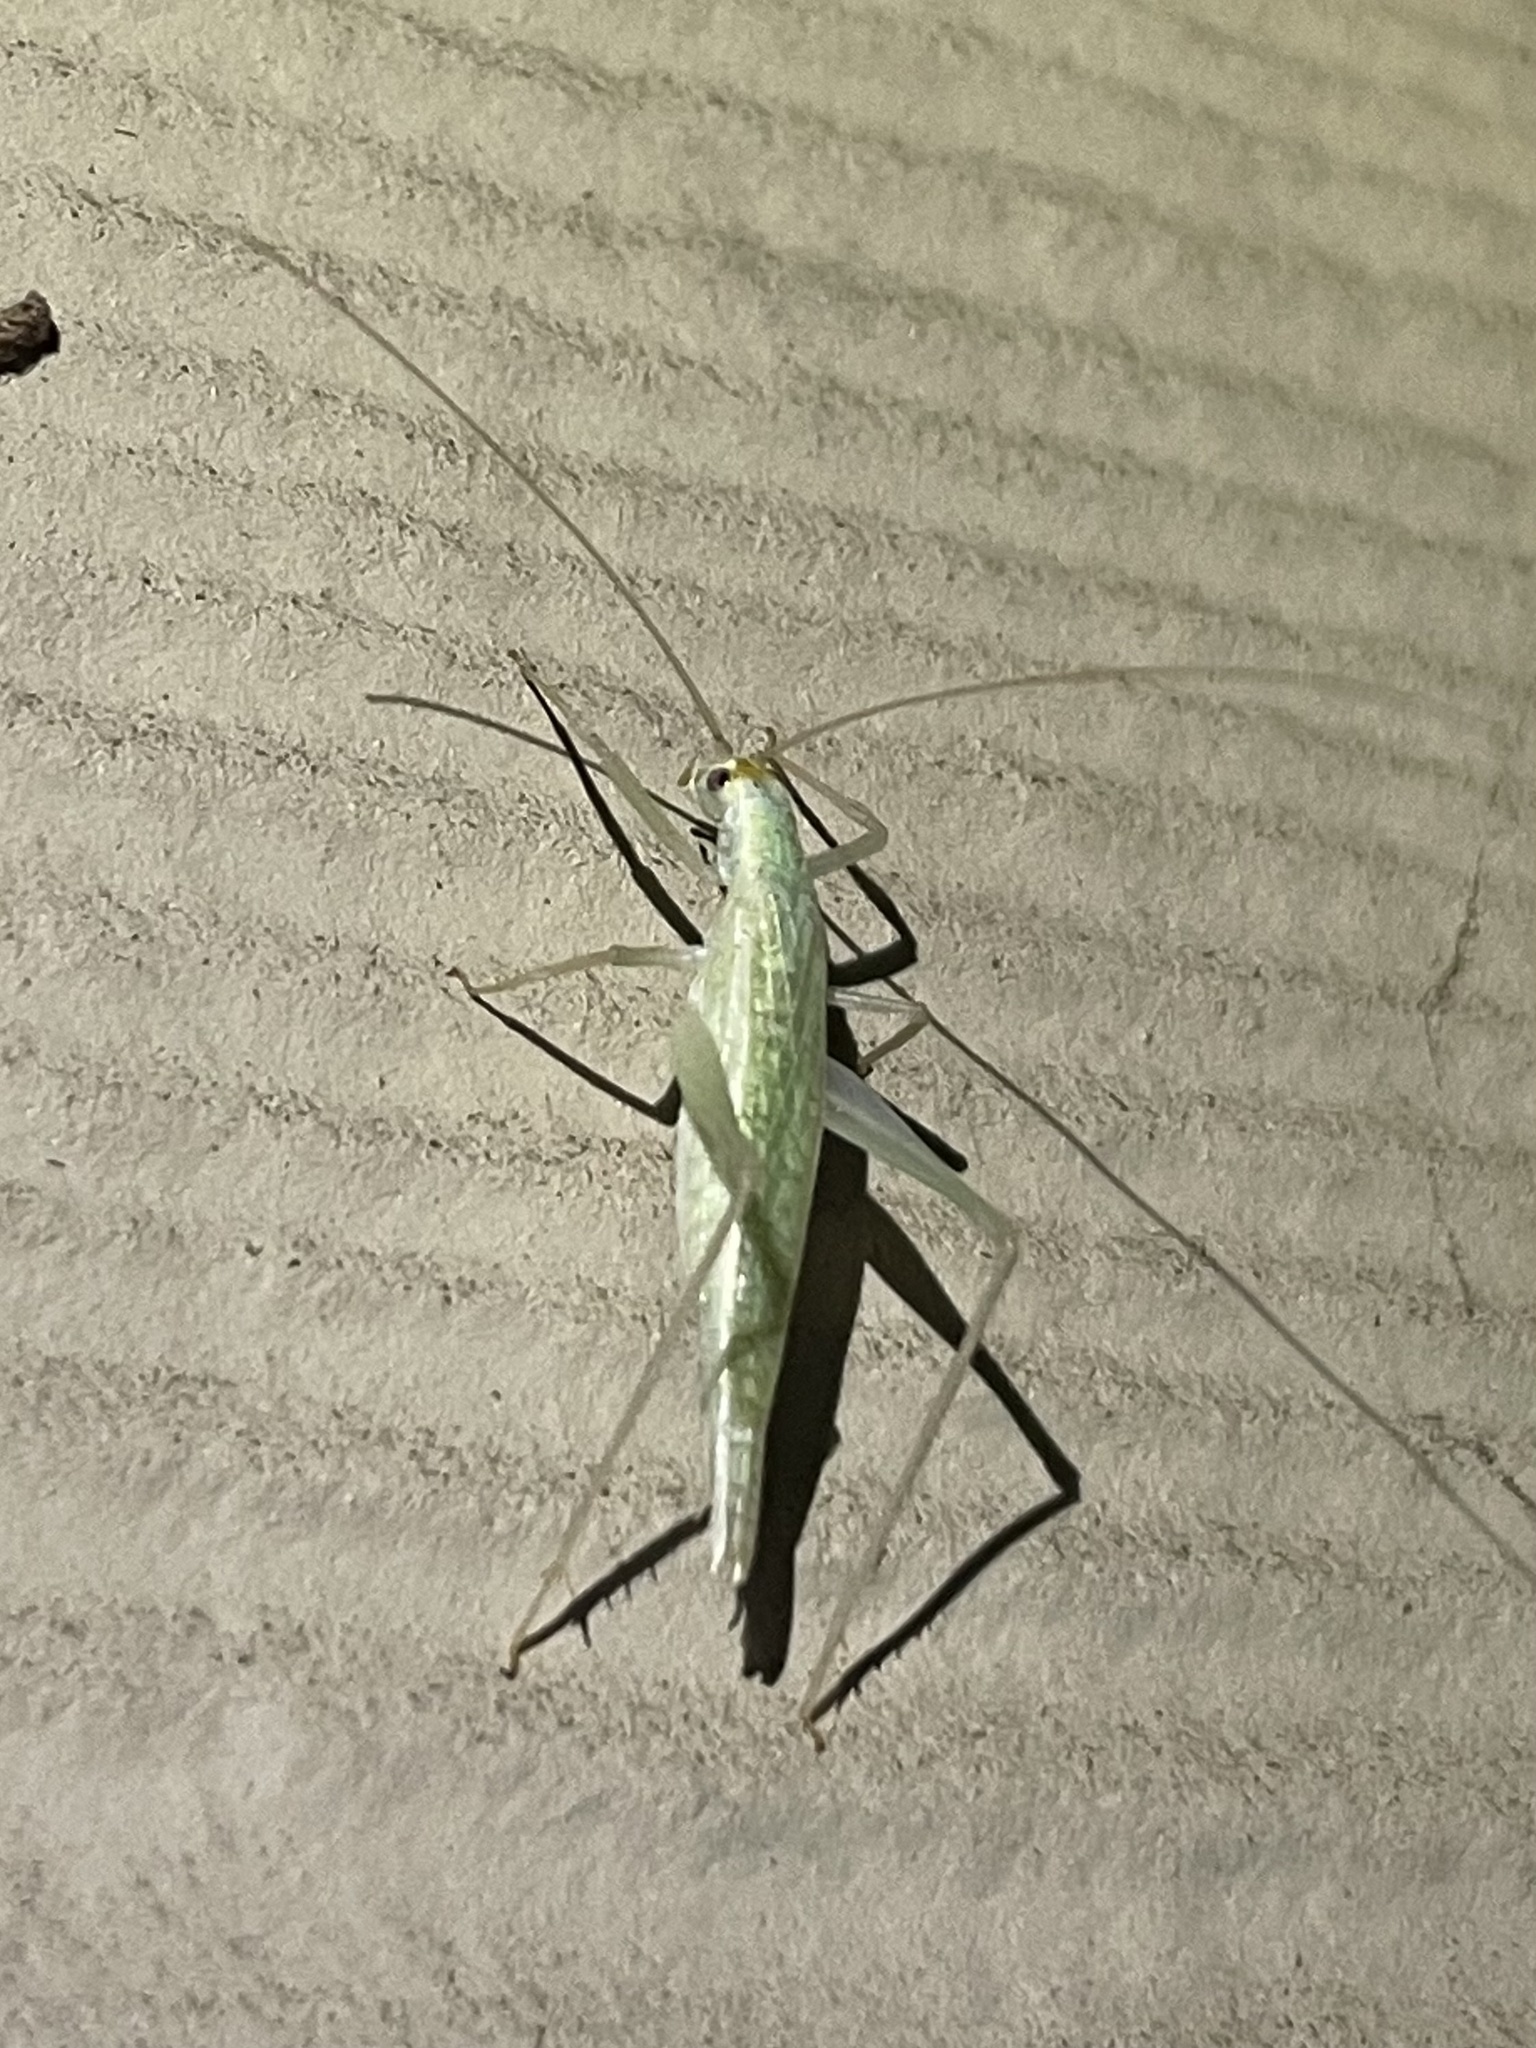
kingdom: Animalia
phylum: Arthropoda
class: Insecta
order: Orthoptera
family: Gryllidae
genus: Oecanthus
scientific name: Oecanthus fultoni
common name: Snowy tree cricket
